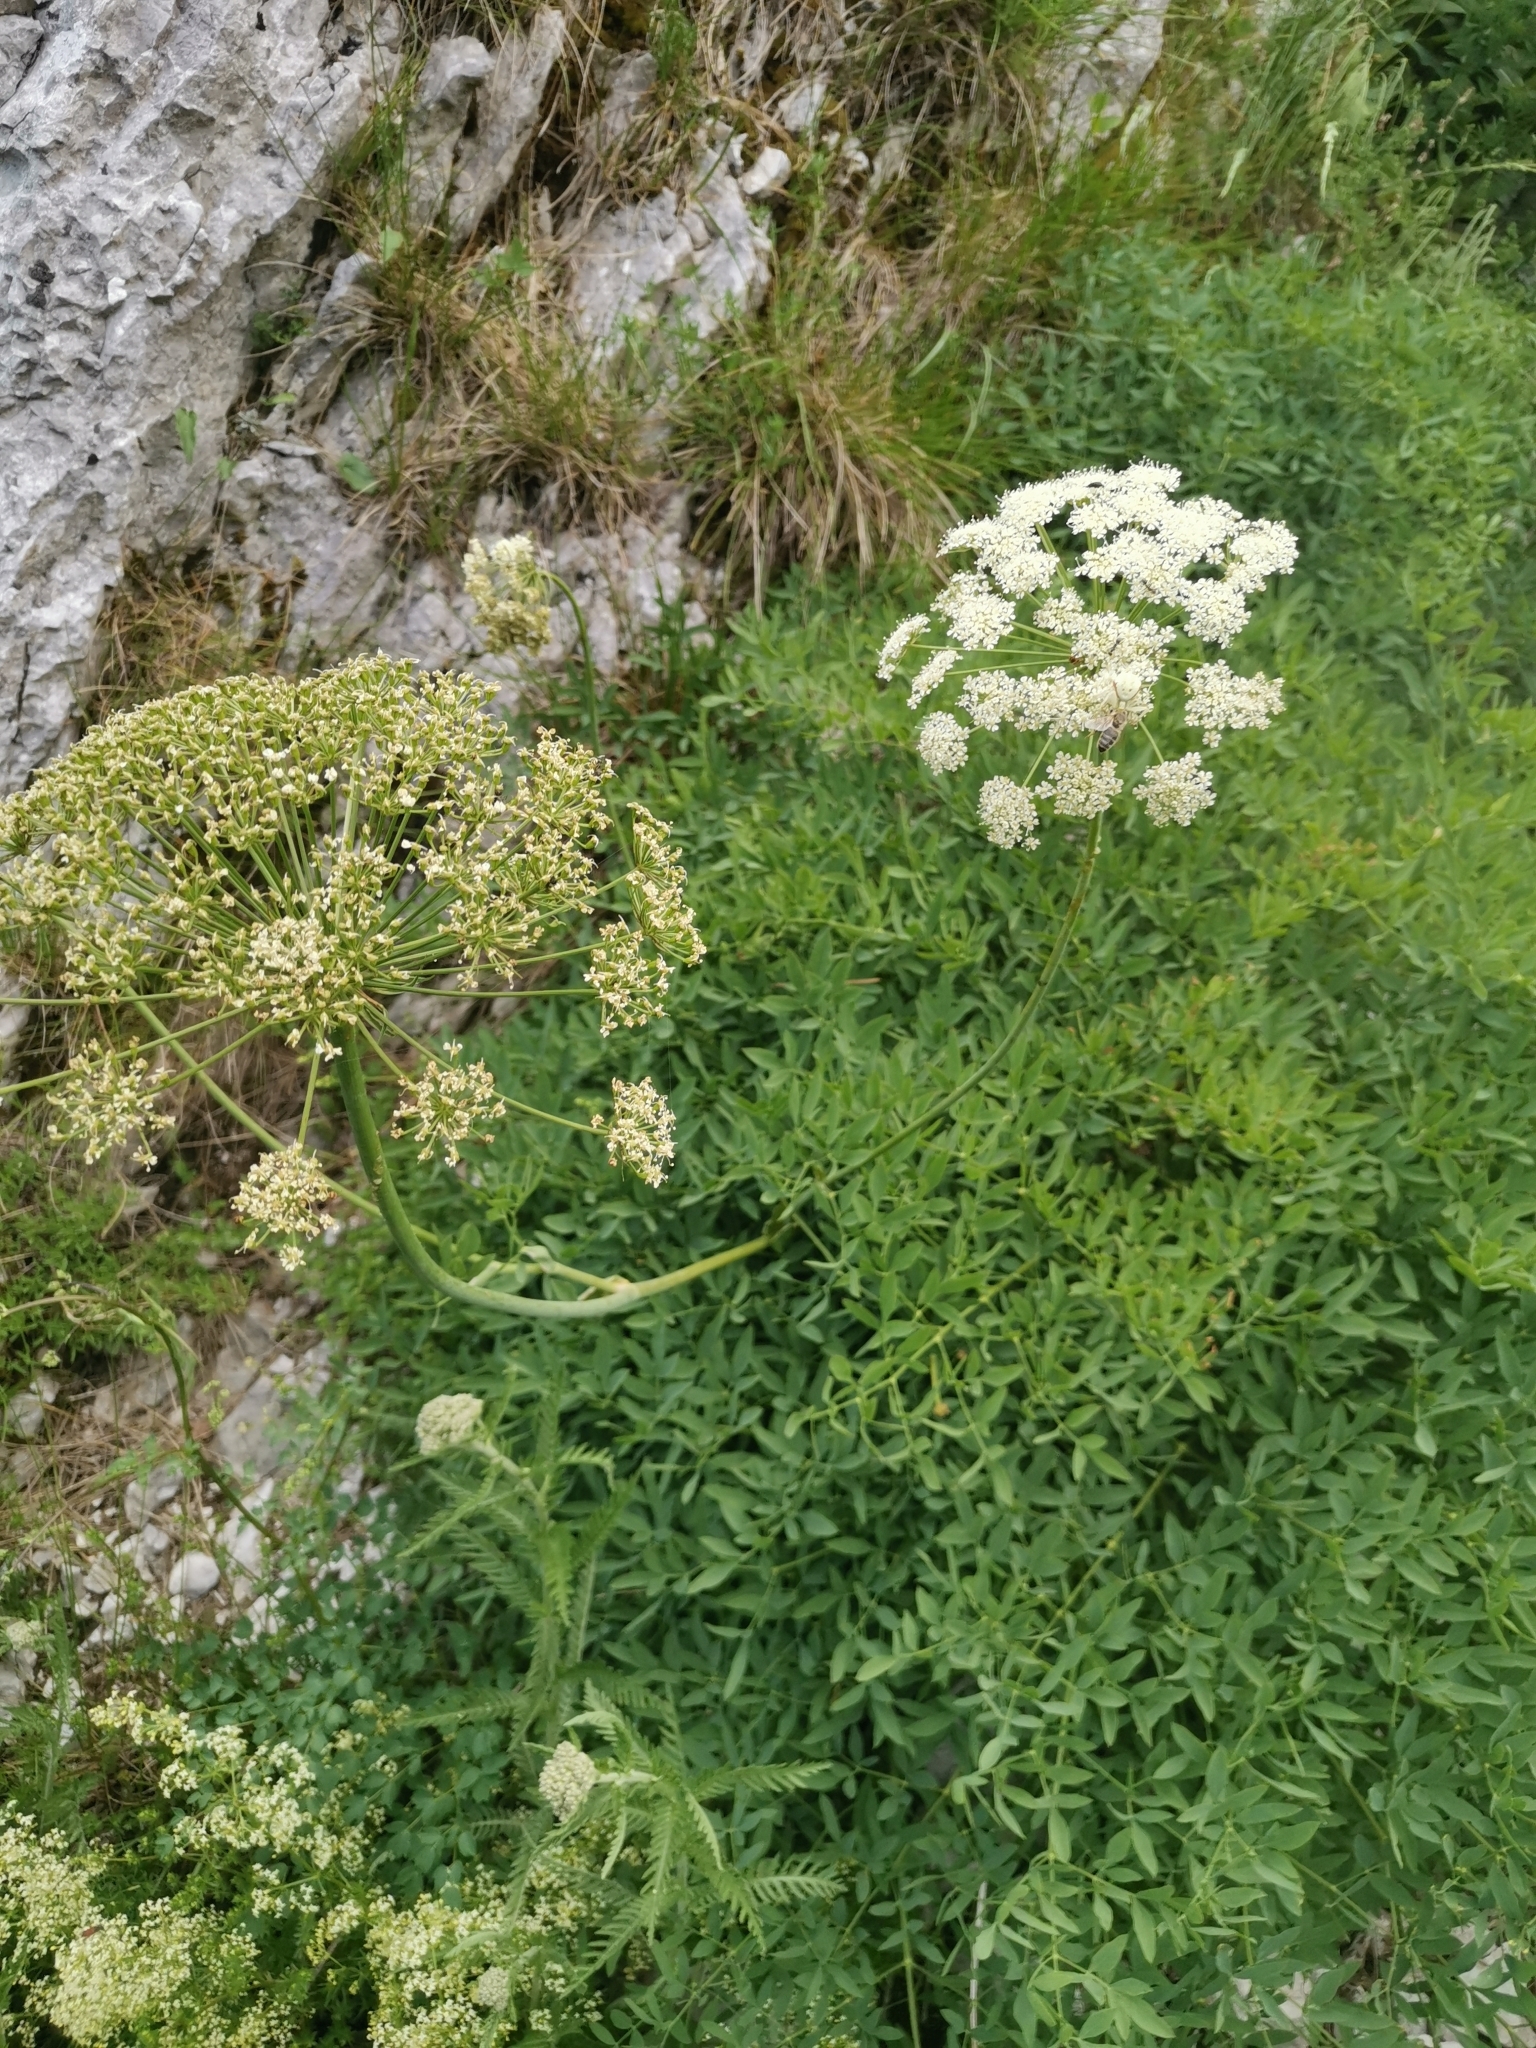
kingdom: Plantae
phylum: Tracheophyta
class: Magnoliopsida
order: Apiales
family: Apiaceae
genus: Siler
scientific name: Siler montanum
